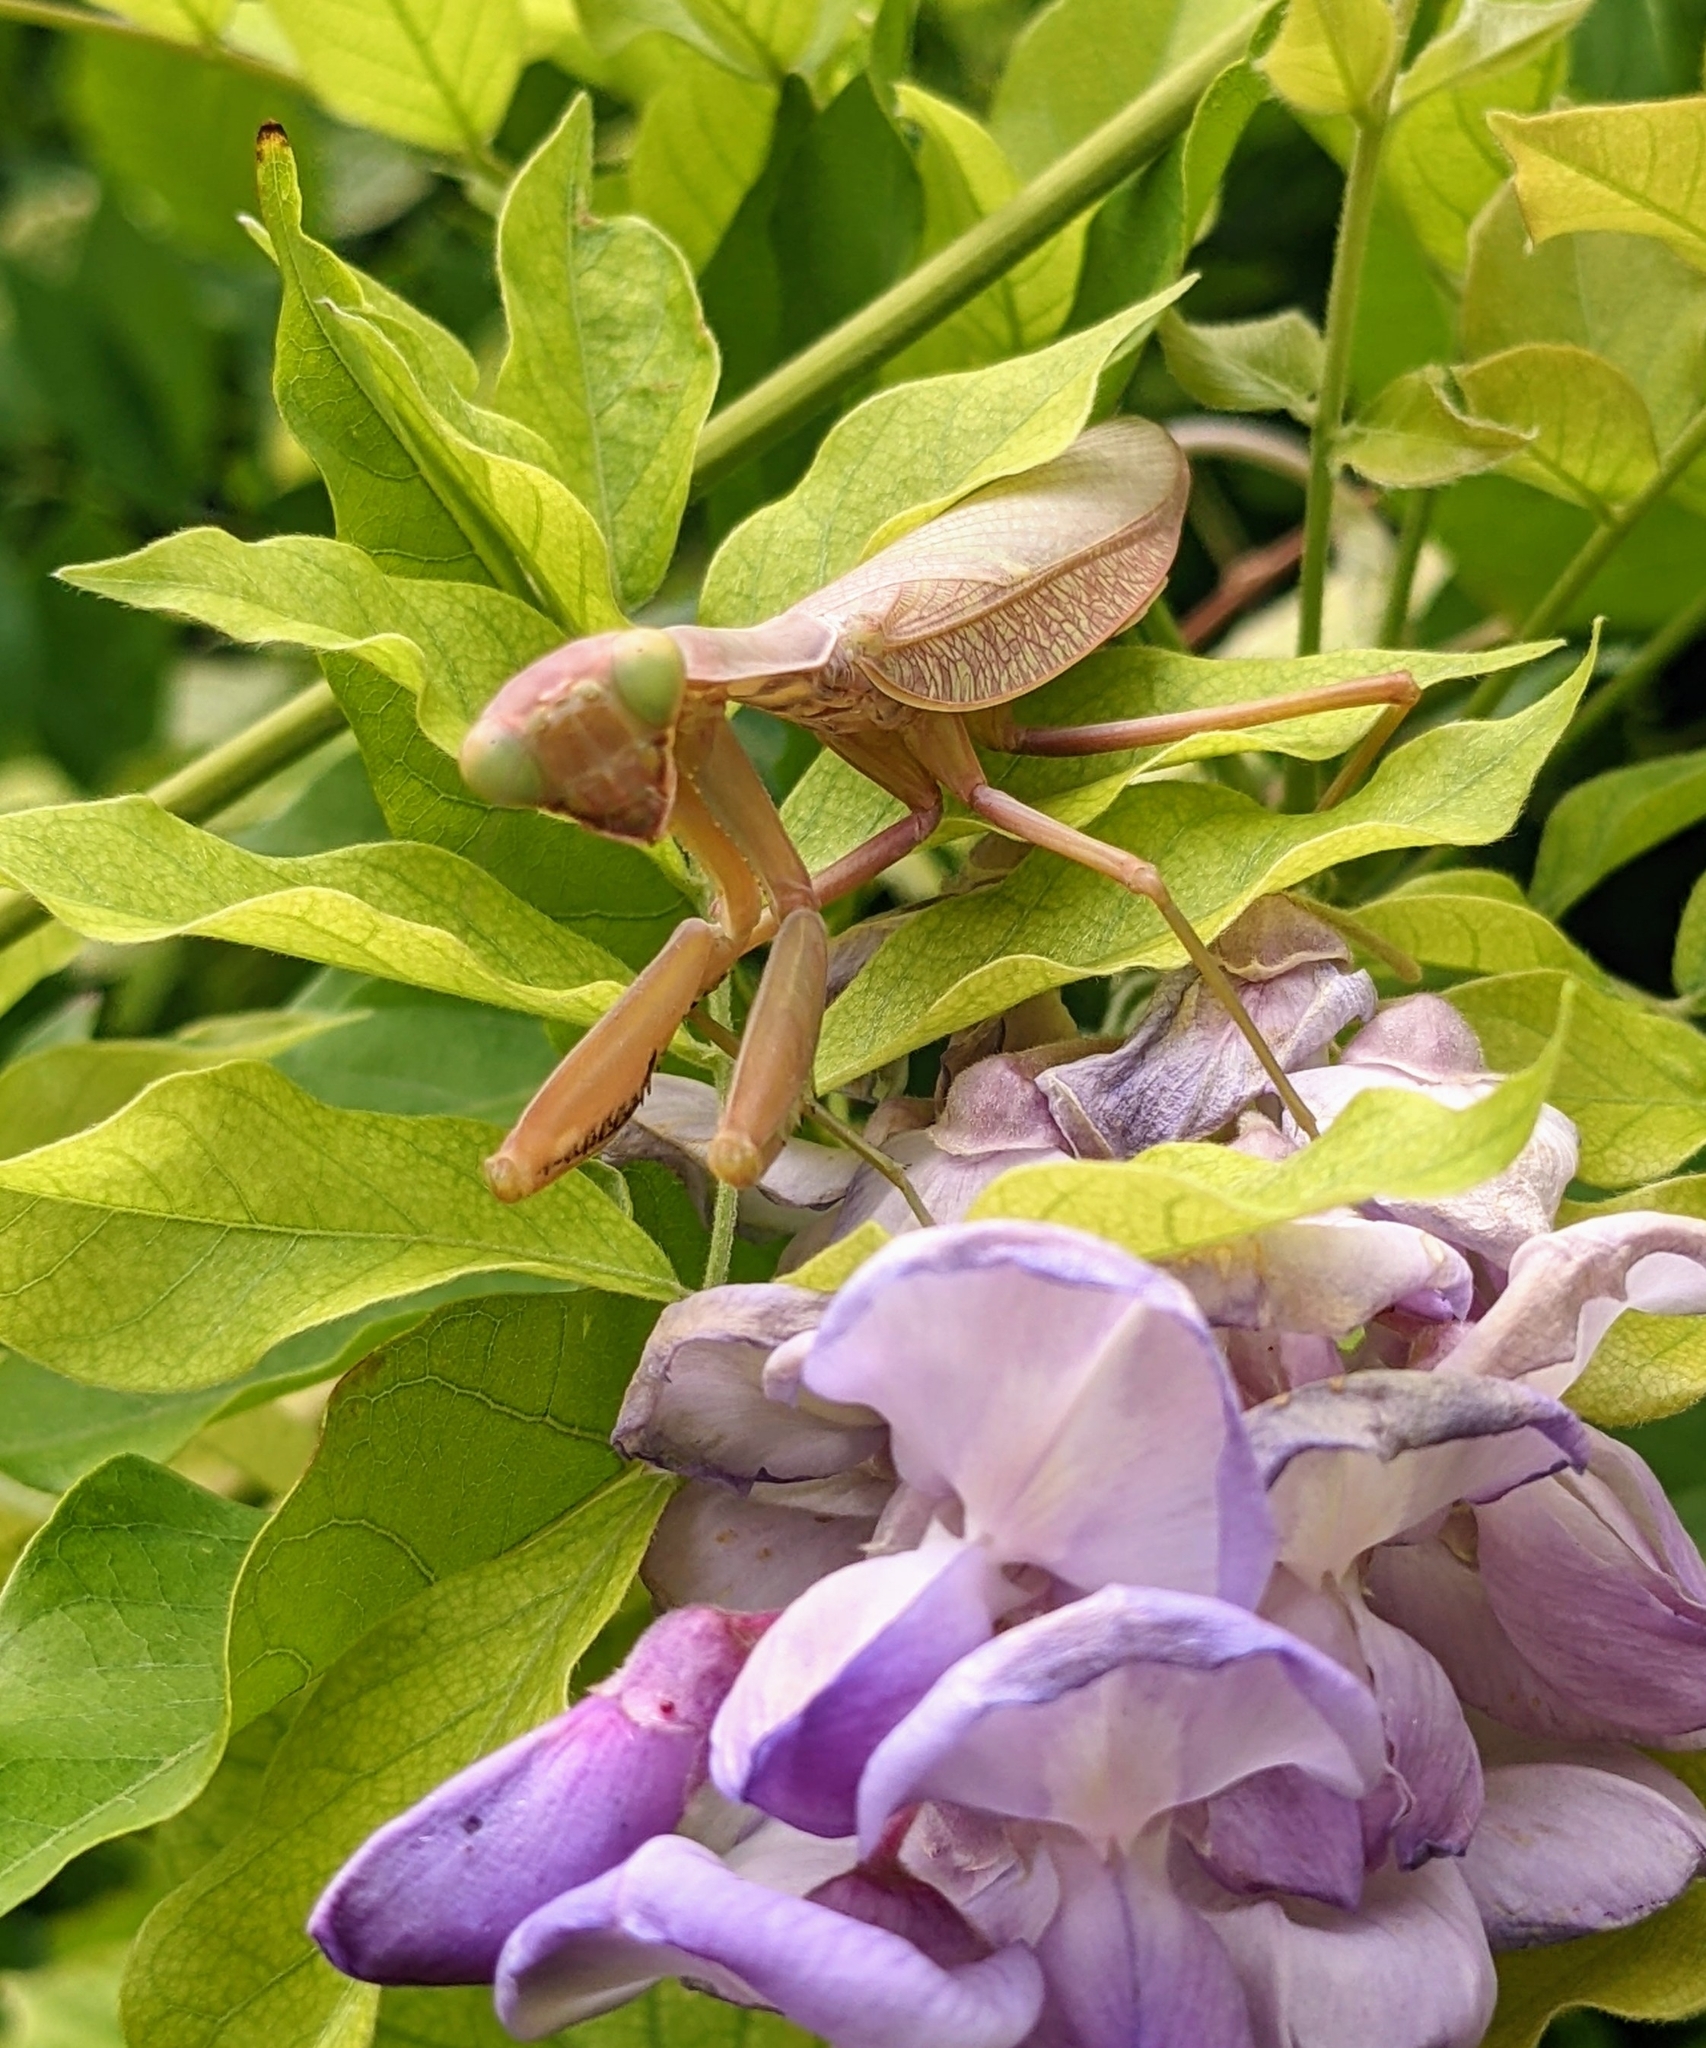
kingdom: Animalia
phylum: Arthropoda
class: Insecta
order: Mantodea
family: Mantidae
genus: Hierodula
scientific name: Hierodula transcaucasica
